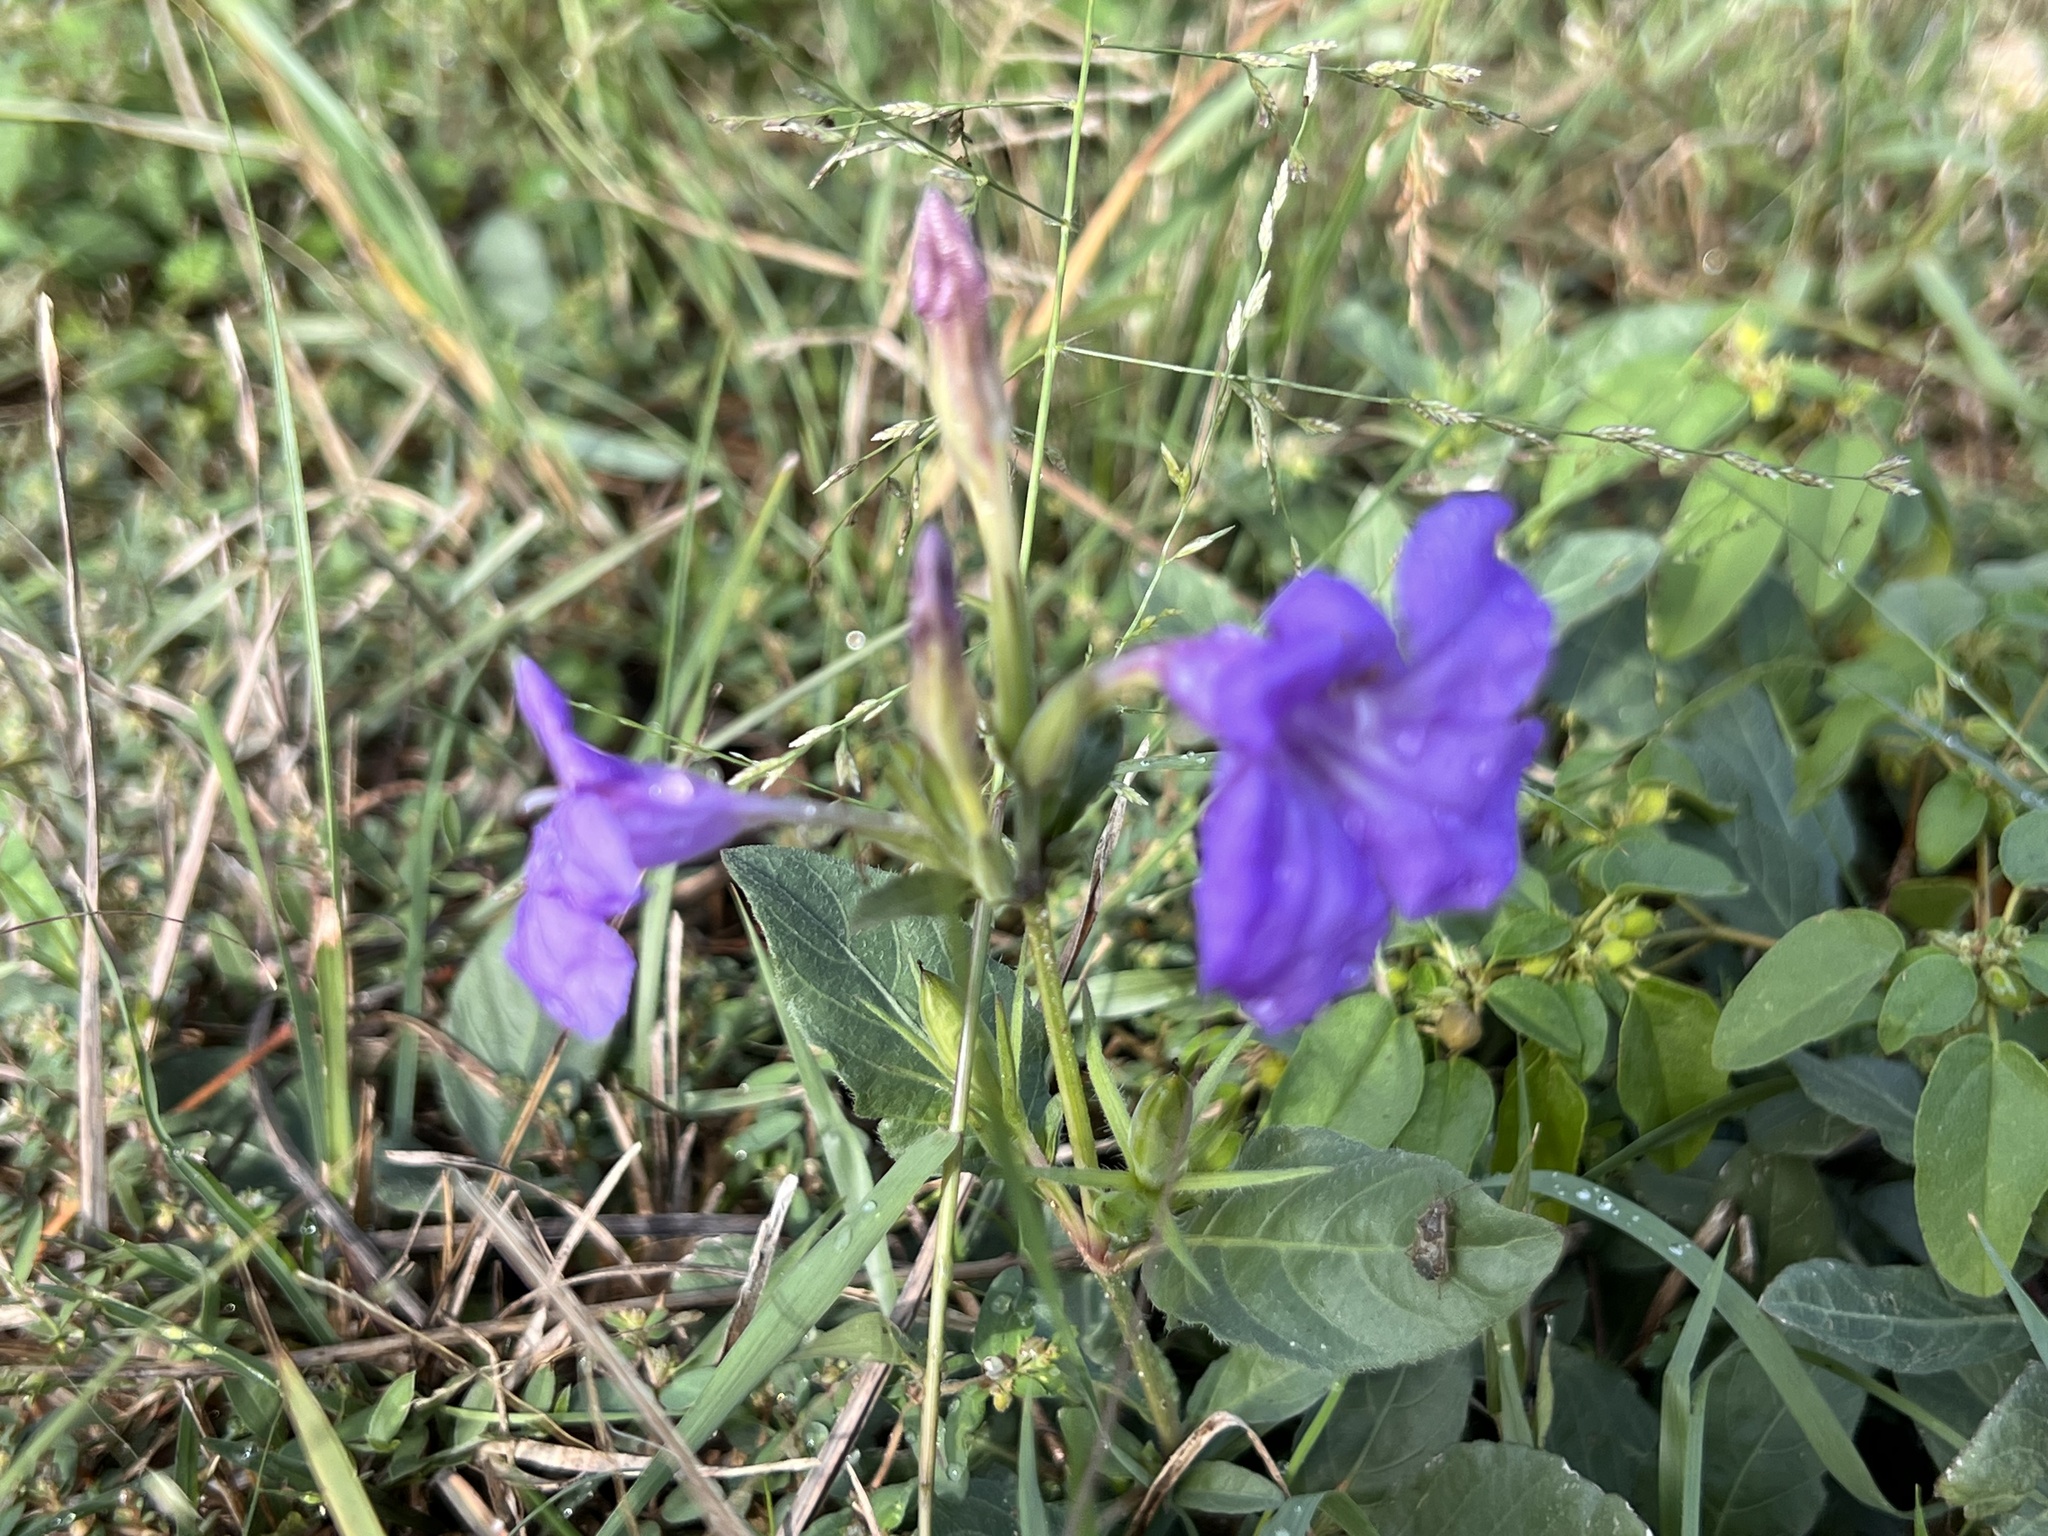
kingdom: Plantae
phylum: Tracheophyta
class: Magnoliopsida
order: Lamiales
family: Acanthaceae
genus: Ruellia
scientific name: Ruellia ciliatiflora
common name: Hairyflower wild petunia
